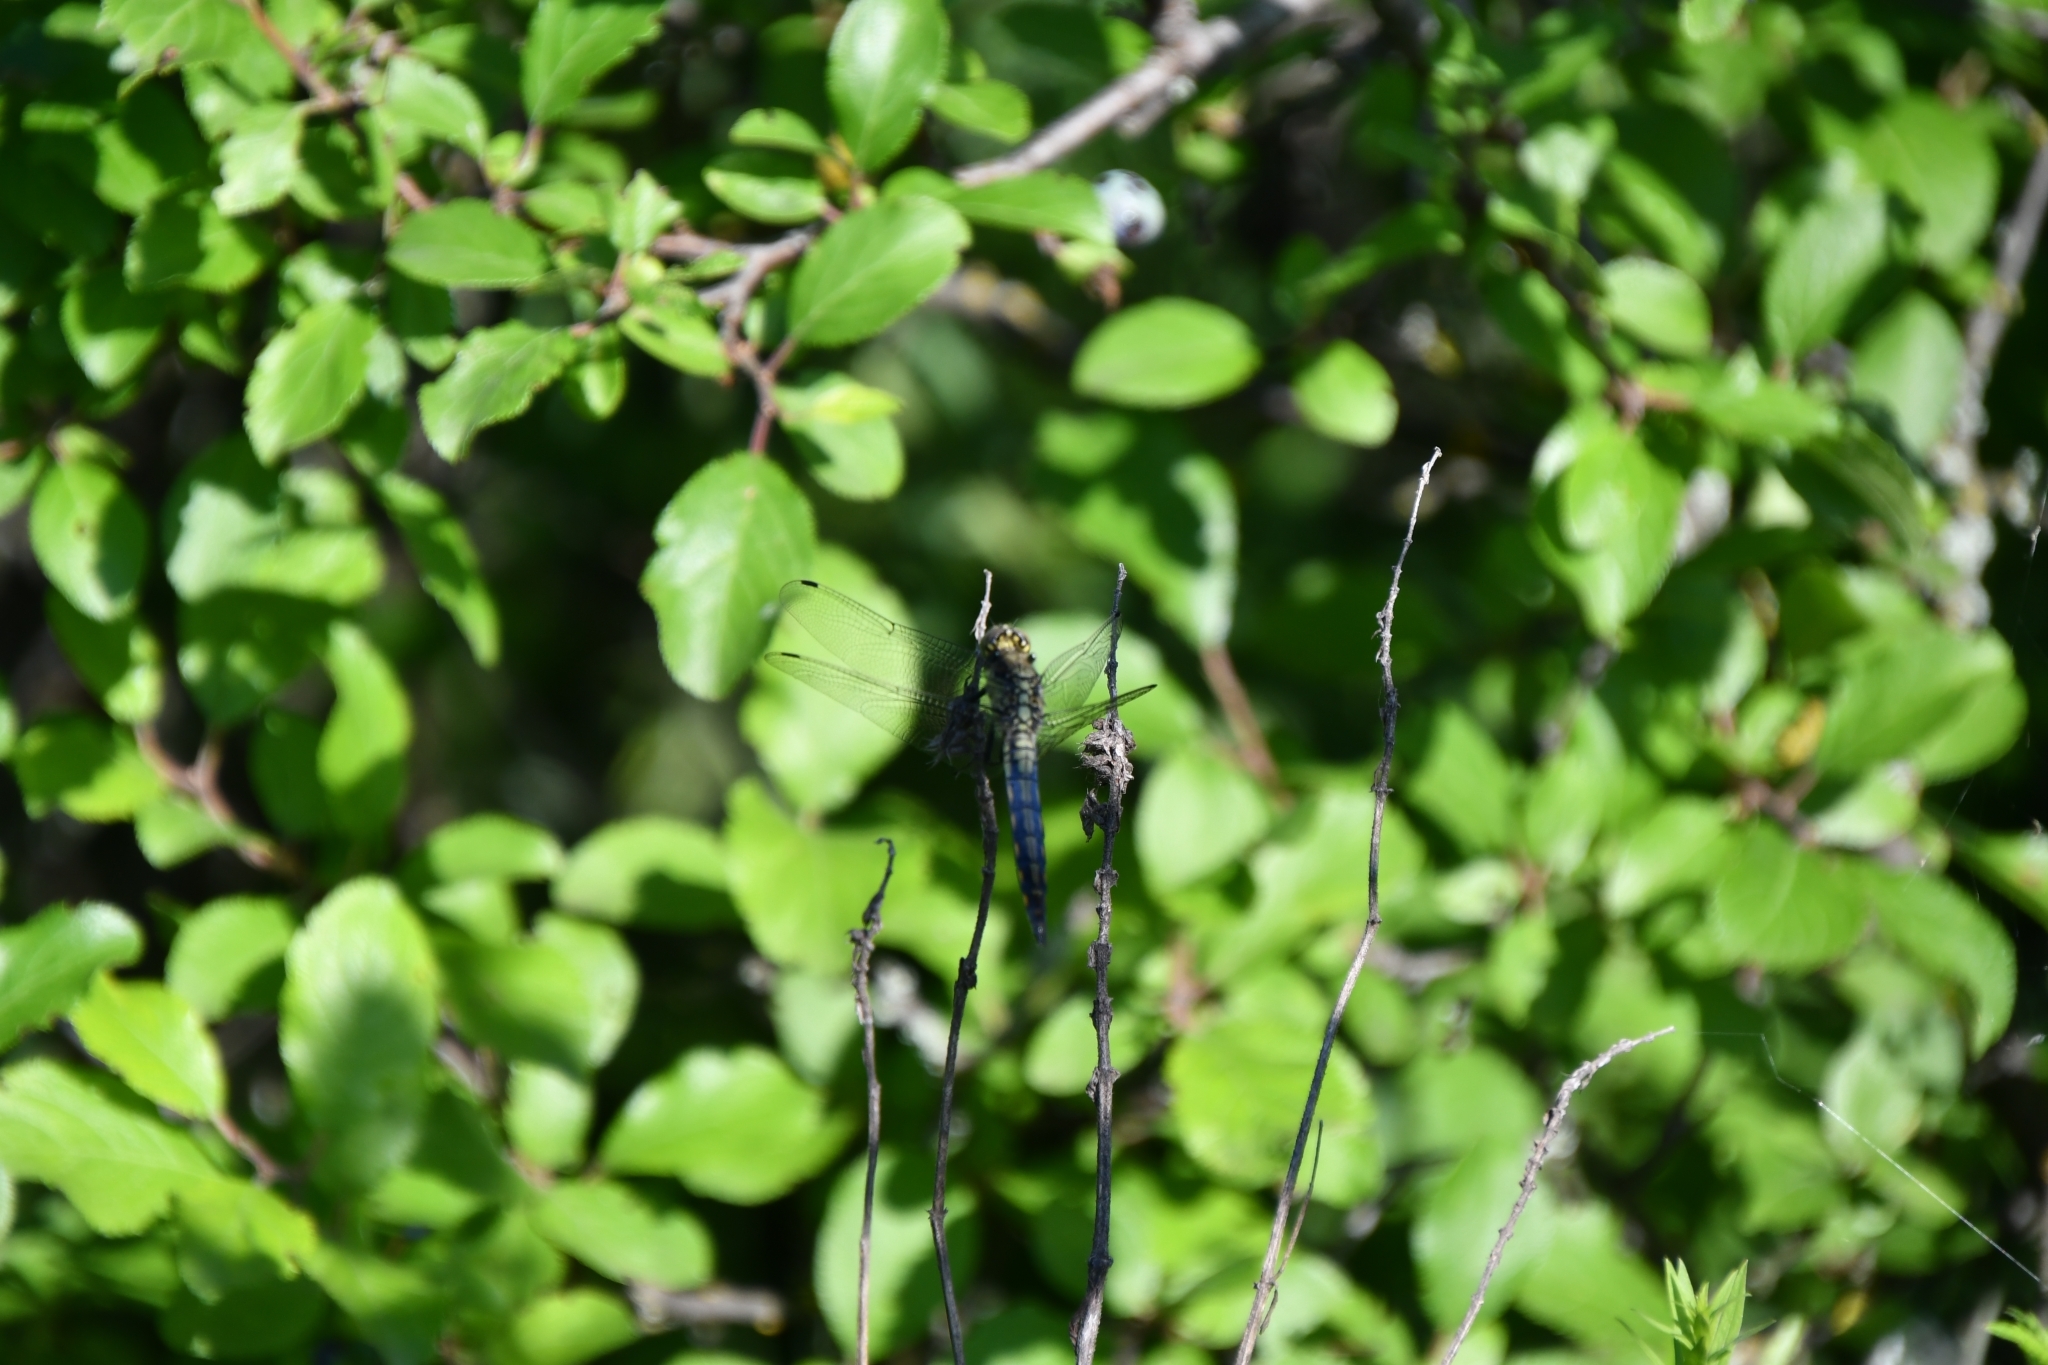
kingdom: Animalia
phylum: Arthropoda
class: Insecta
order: Odonata
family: Libellulidae
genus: Orthetrum
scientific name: Orthetrum cancellatum
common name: Black-tailed skimmer
